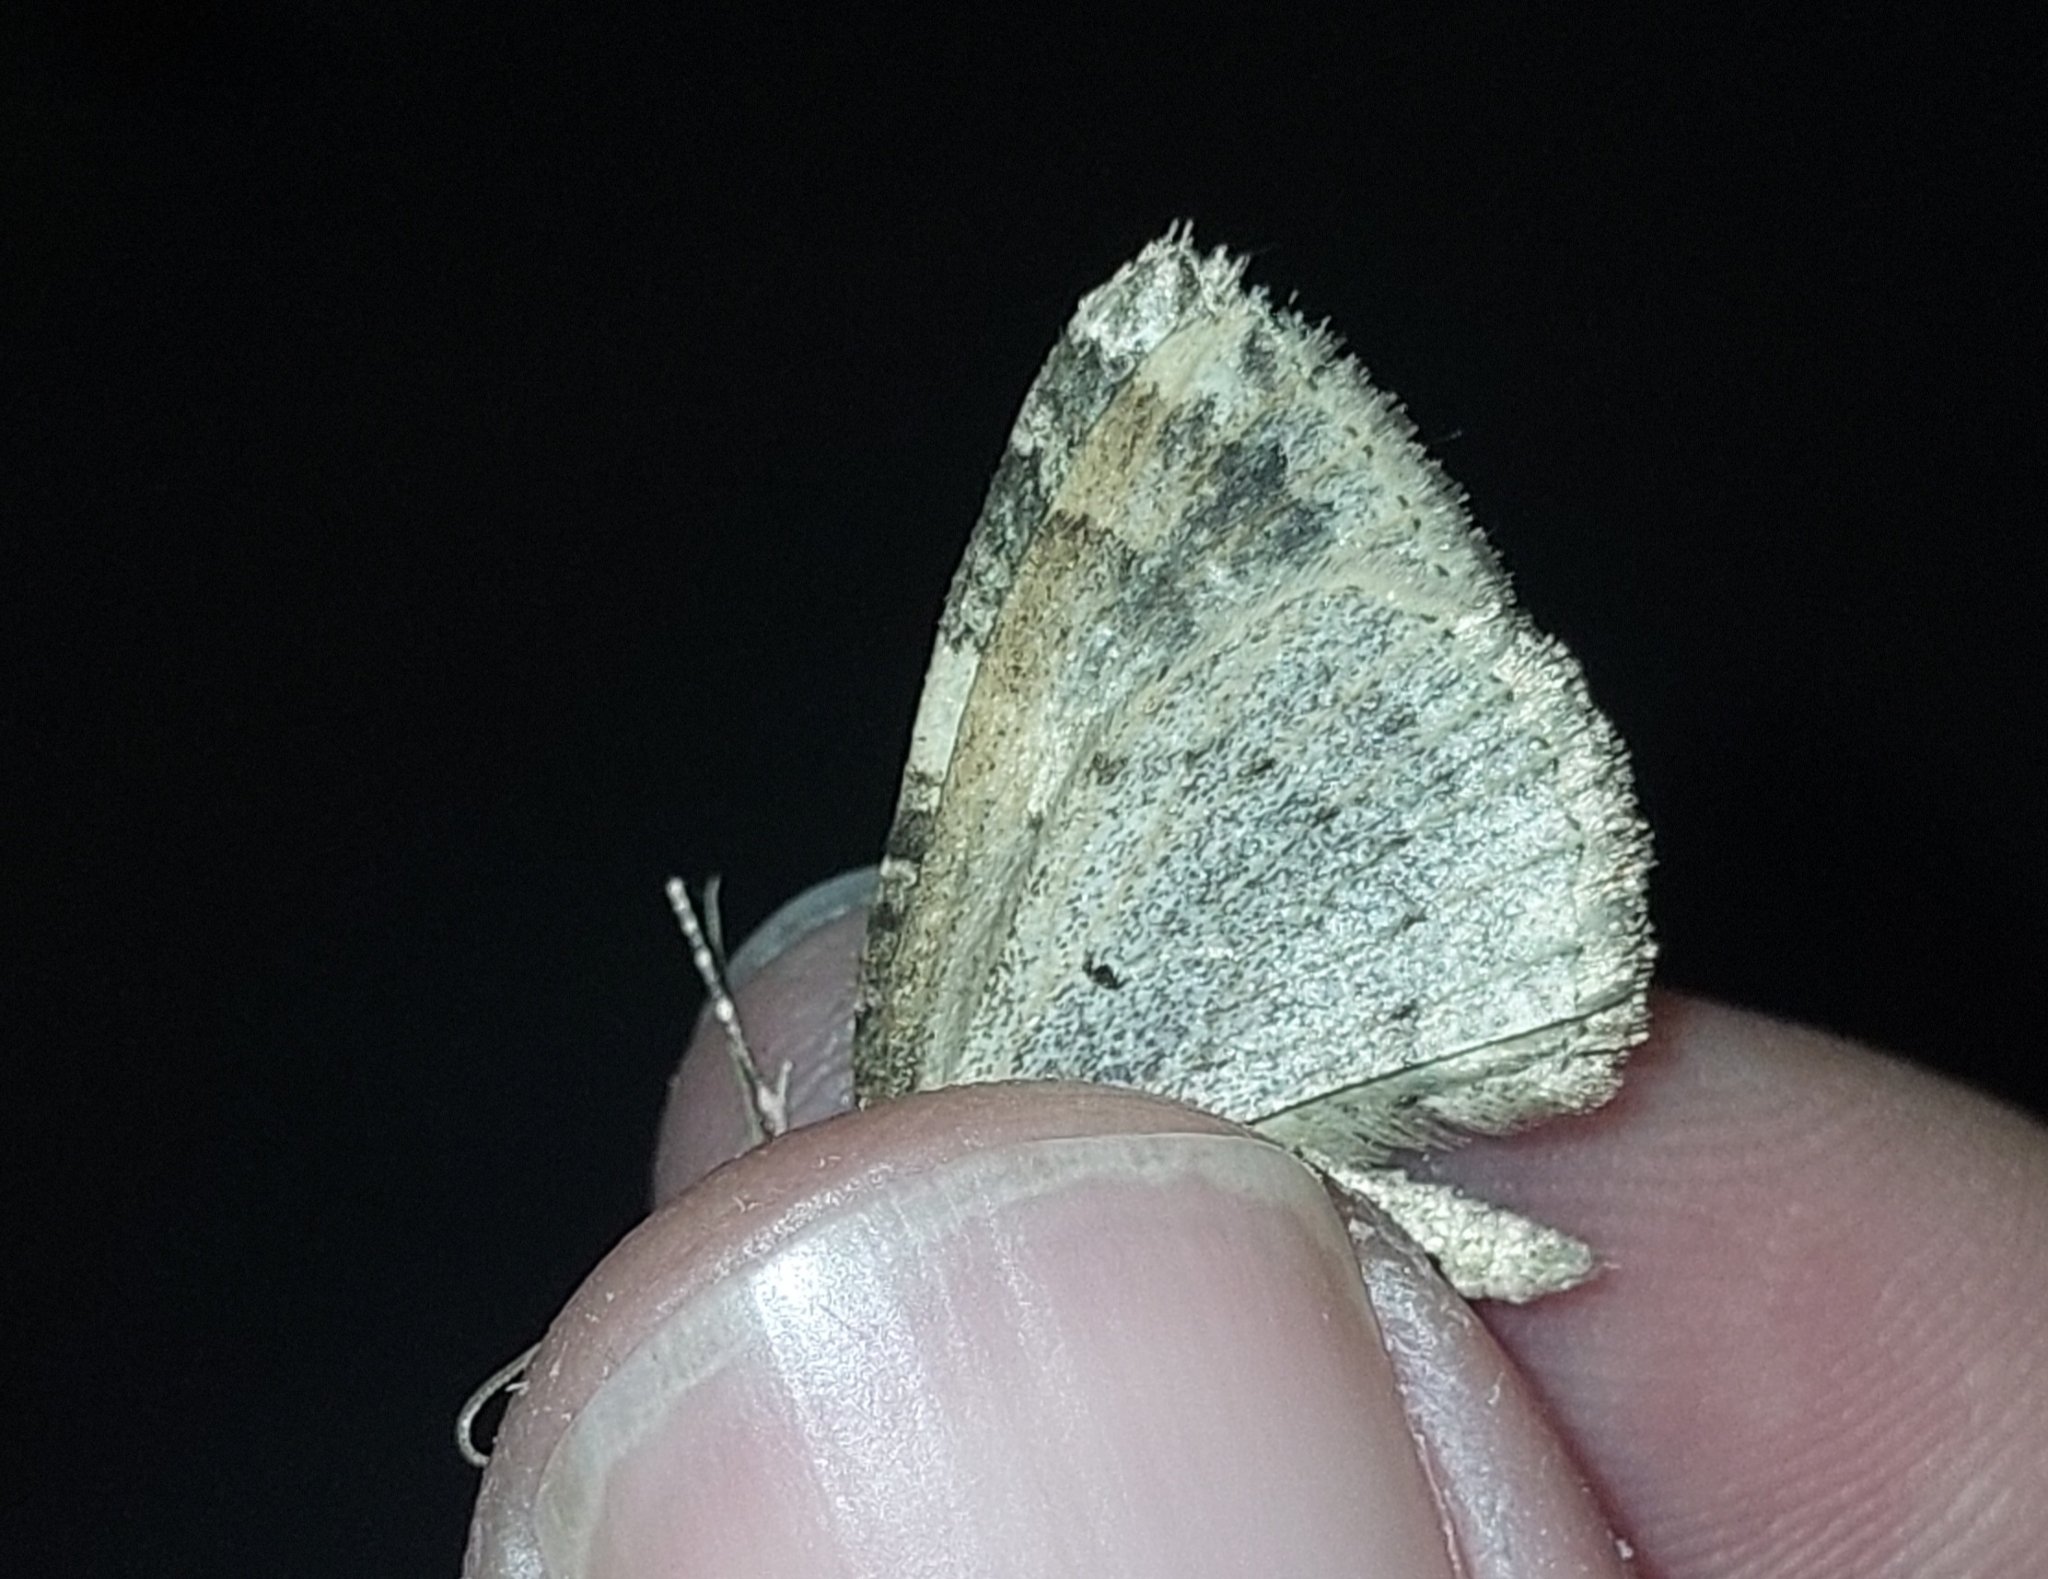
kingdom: Animalia
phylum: Arthropoda
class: Insecta
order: Lepidoptera
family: Geometridae
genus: Nebula
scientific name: Nebula malvata
